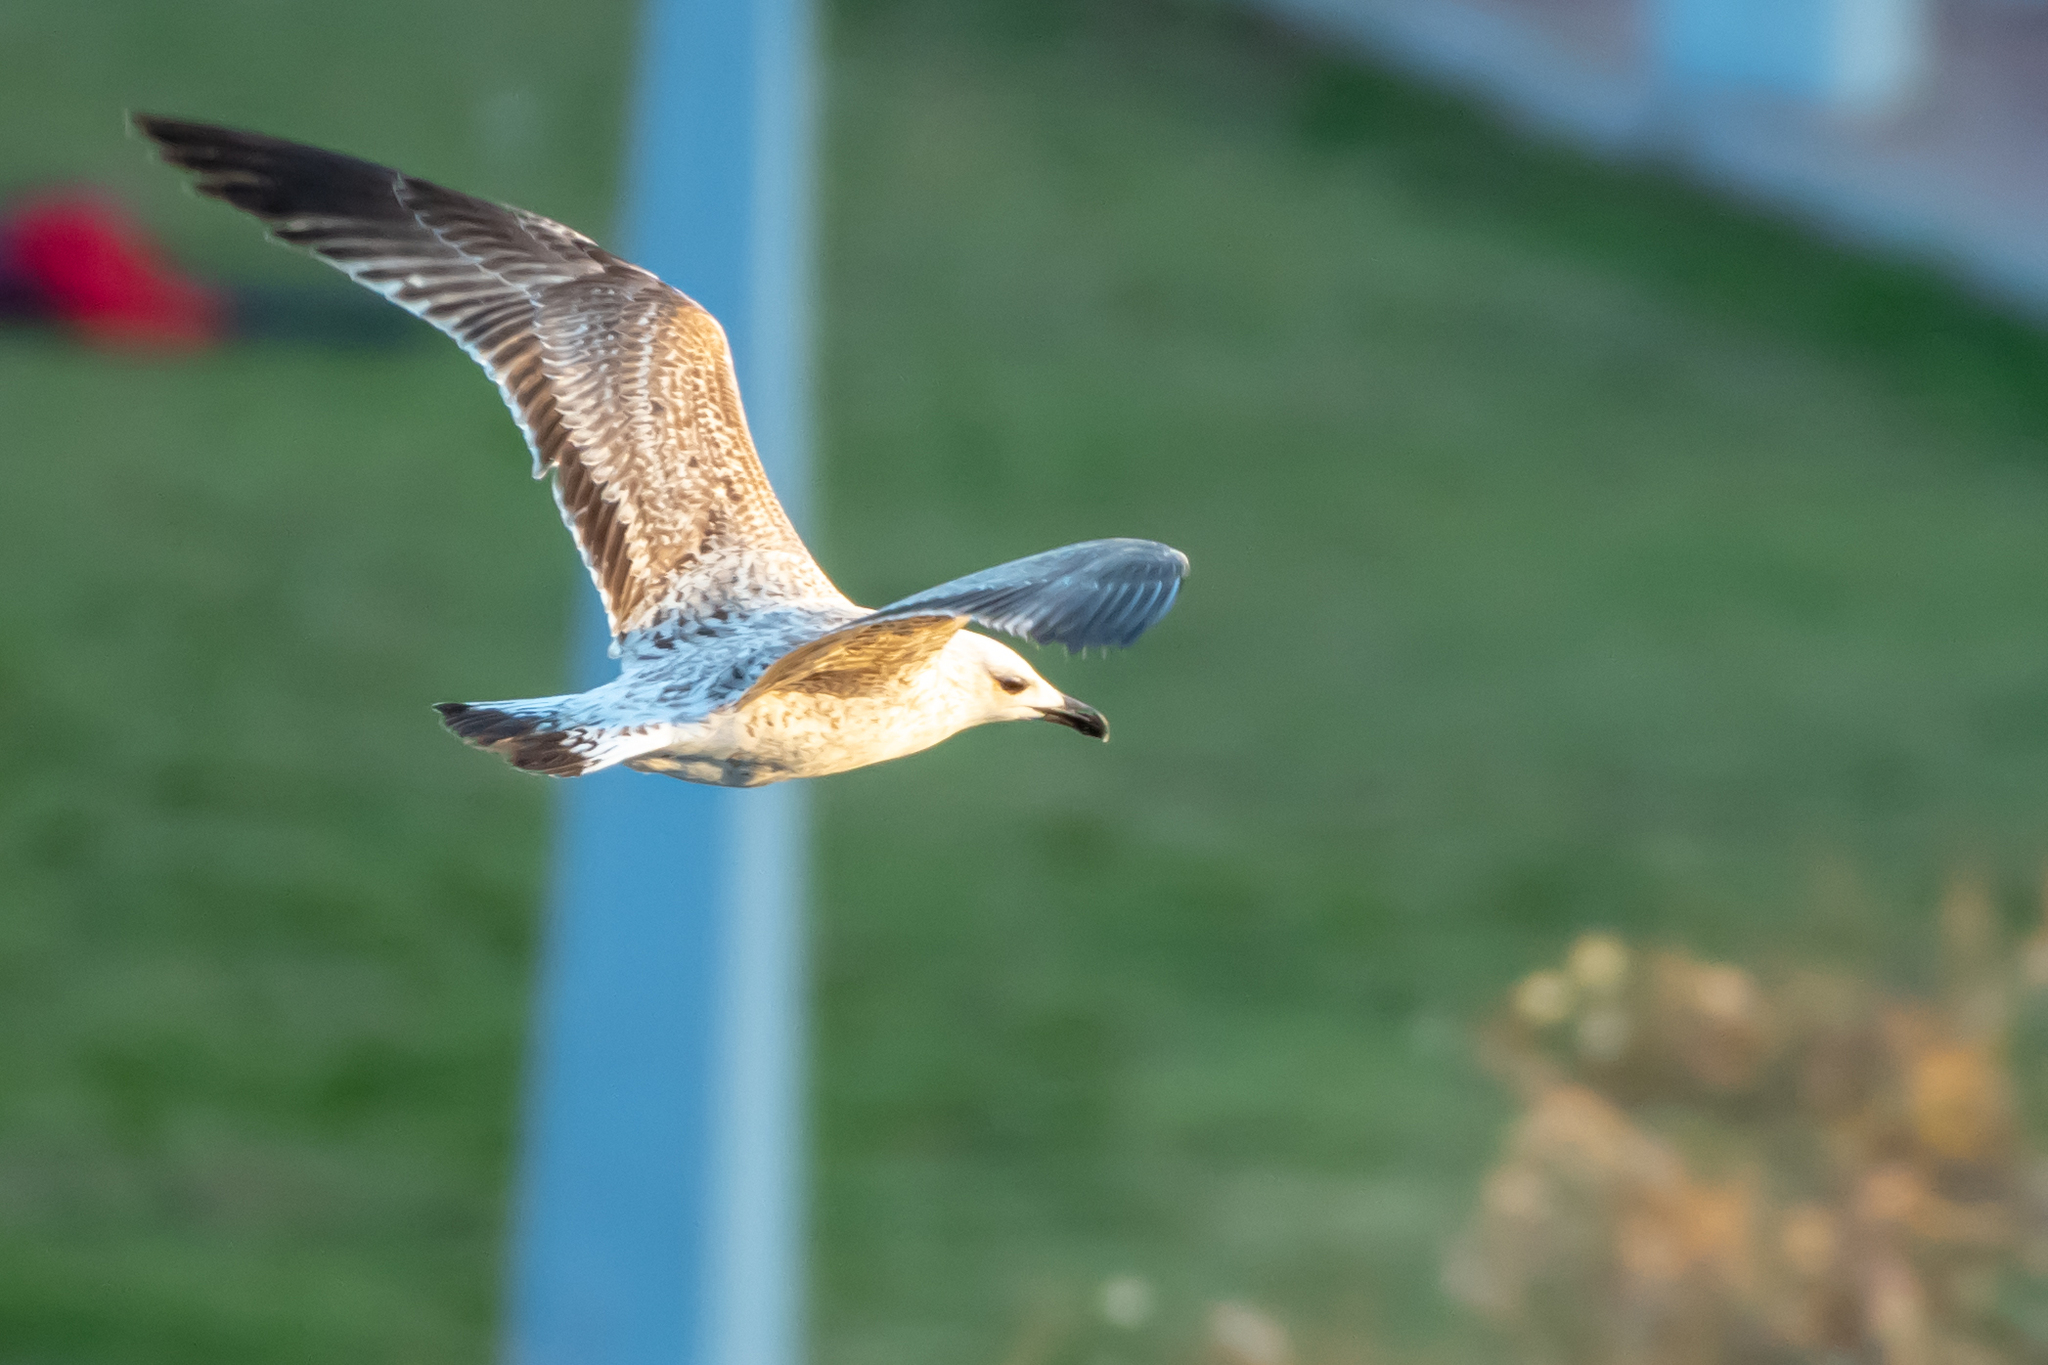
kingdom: Animalia
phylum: Chordata
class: Aves
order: Charadriiformes
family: Laridae
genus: Larus
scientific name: Larus michahellis
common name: Yellow-legged gull
